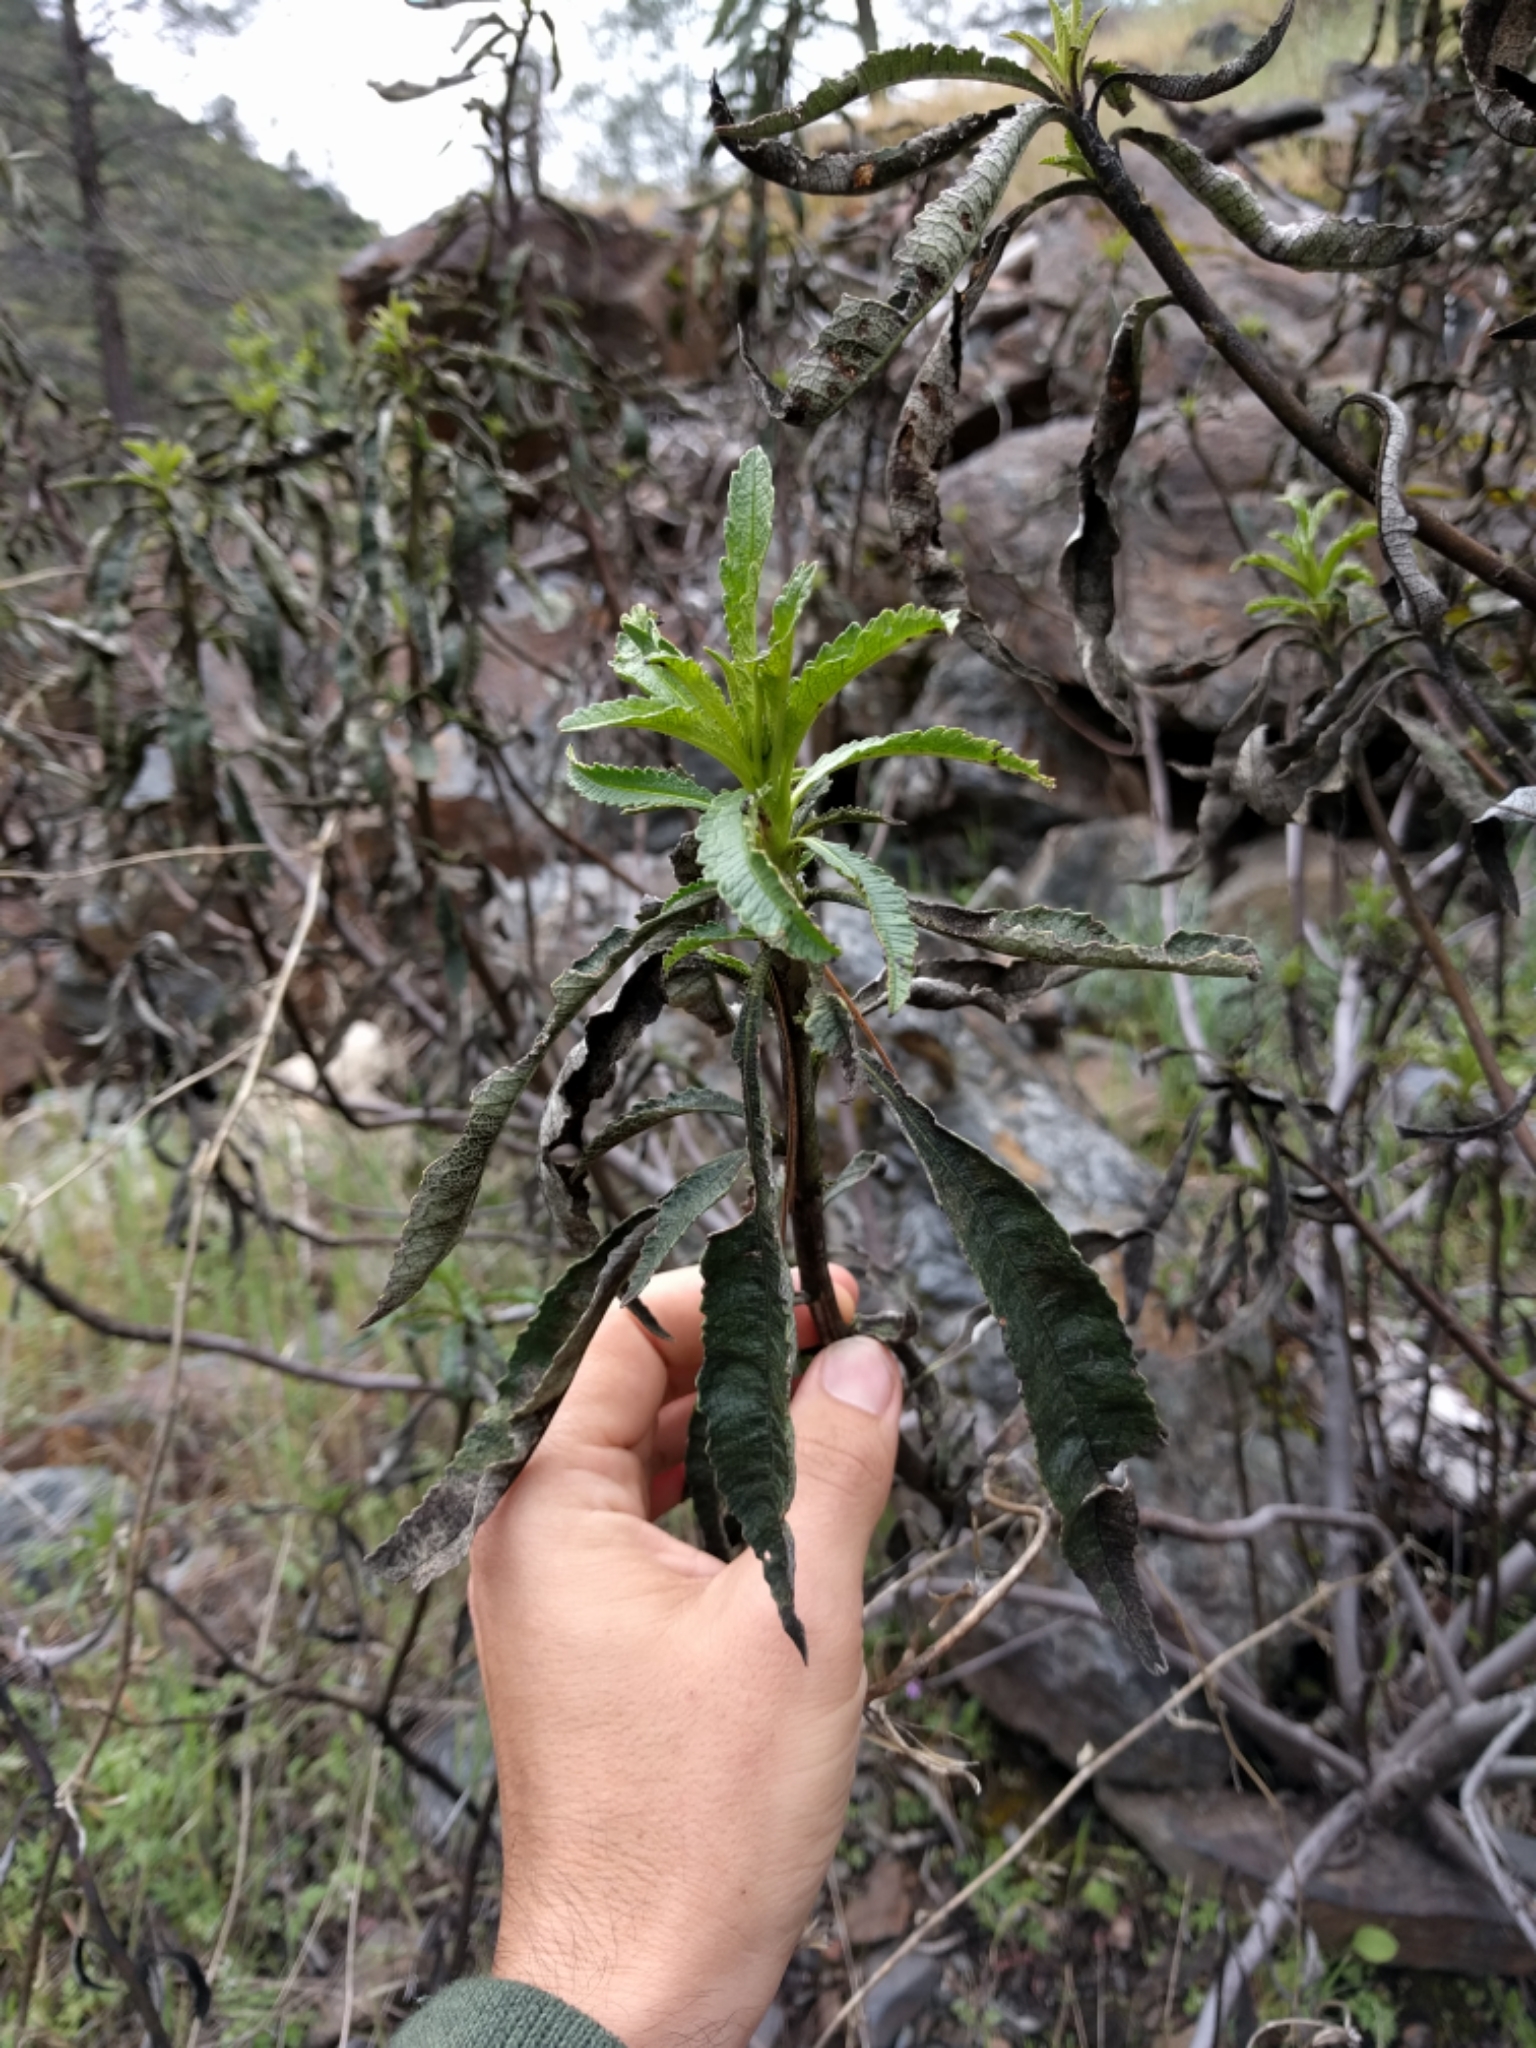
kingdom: Plantae
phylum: Tracheophyta
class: Magnoliopsida
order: Boraginales
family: Namaceae
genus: Eriodictyon
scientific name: Eriodictyon californicum
